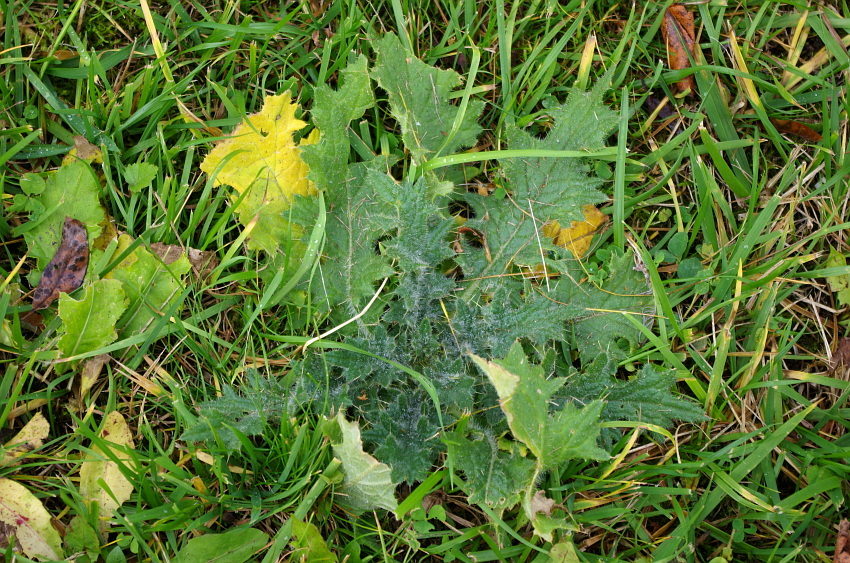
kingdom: Plantae
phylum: Tracheophyta
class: Magnoliopsida
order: Asterales
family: Asteraceae
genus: Cirsium
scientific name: Cirsium vulgare
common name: Bull thistle
